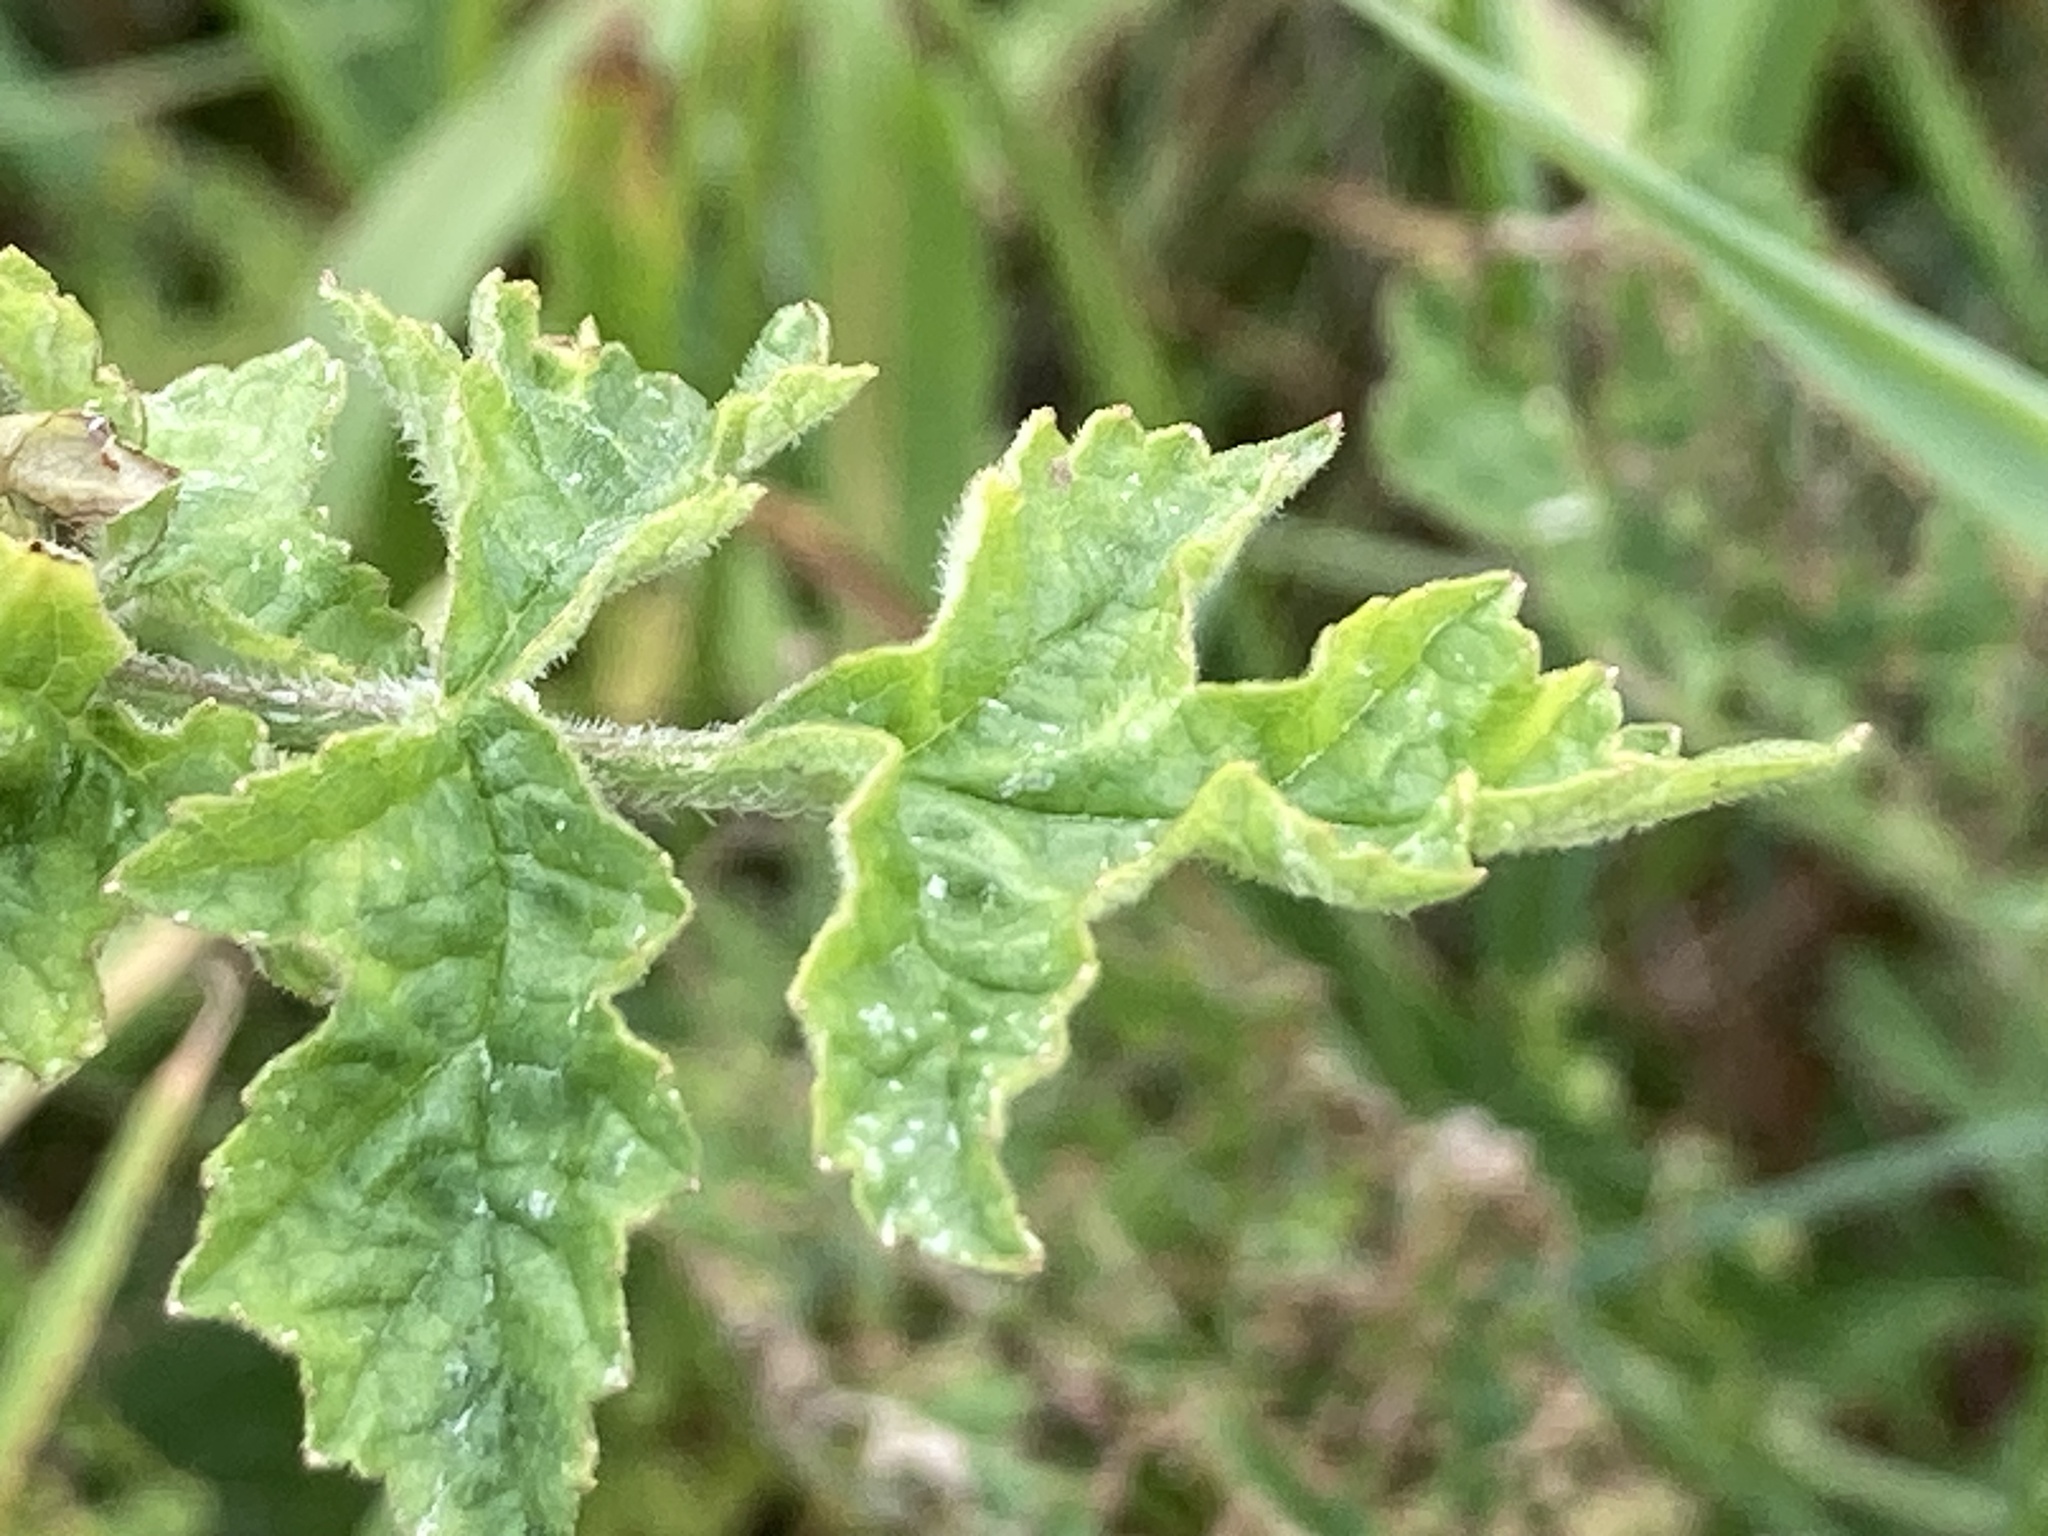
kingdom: Plantae
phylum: Tracheophyta
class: Magnoliopsida
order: Apiales
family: Apiaceae
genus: Heracleum
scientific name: Heracleum sphondylium
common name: Hogweed
